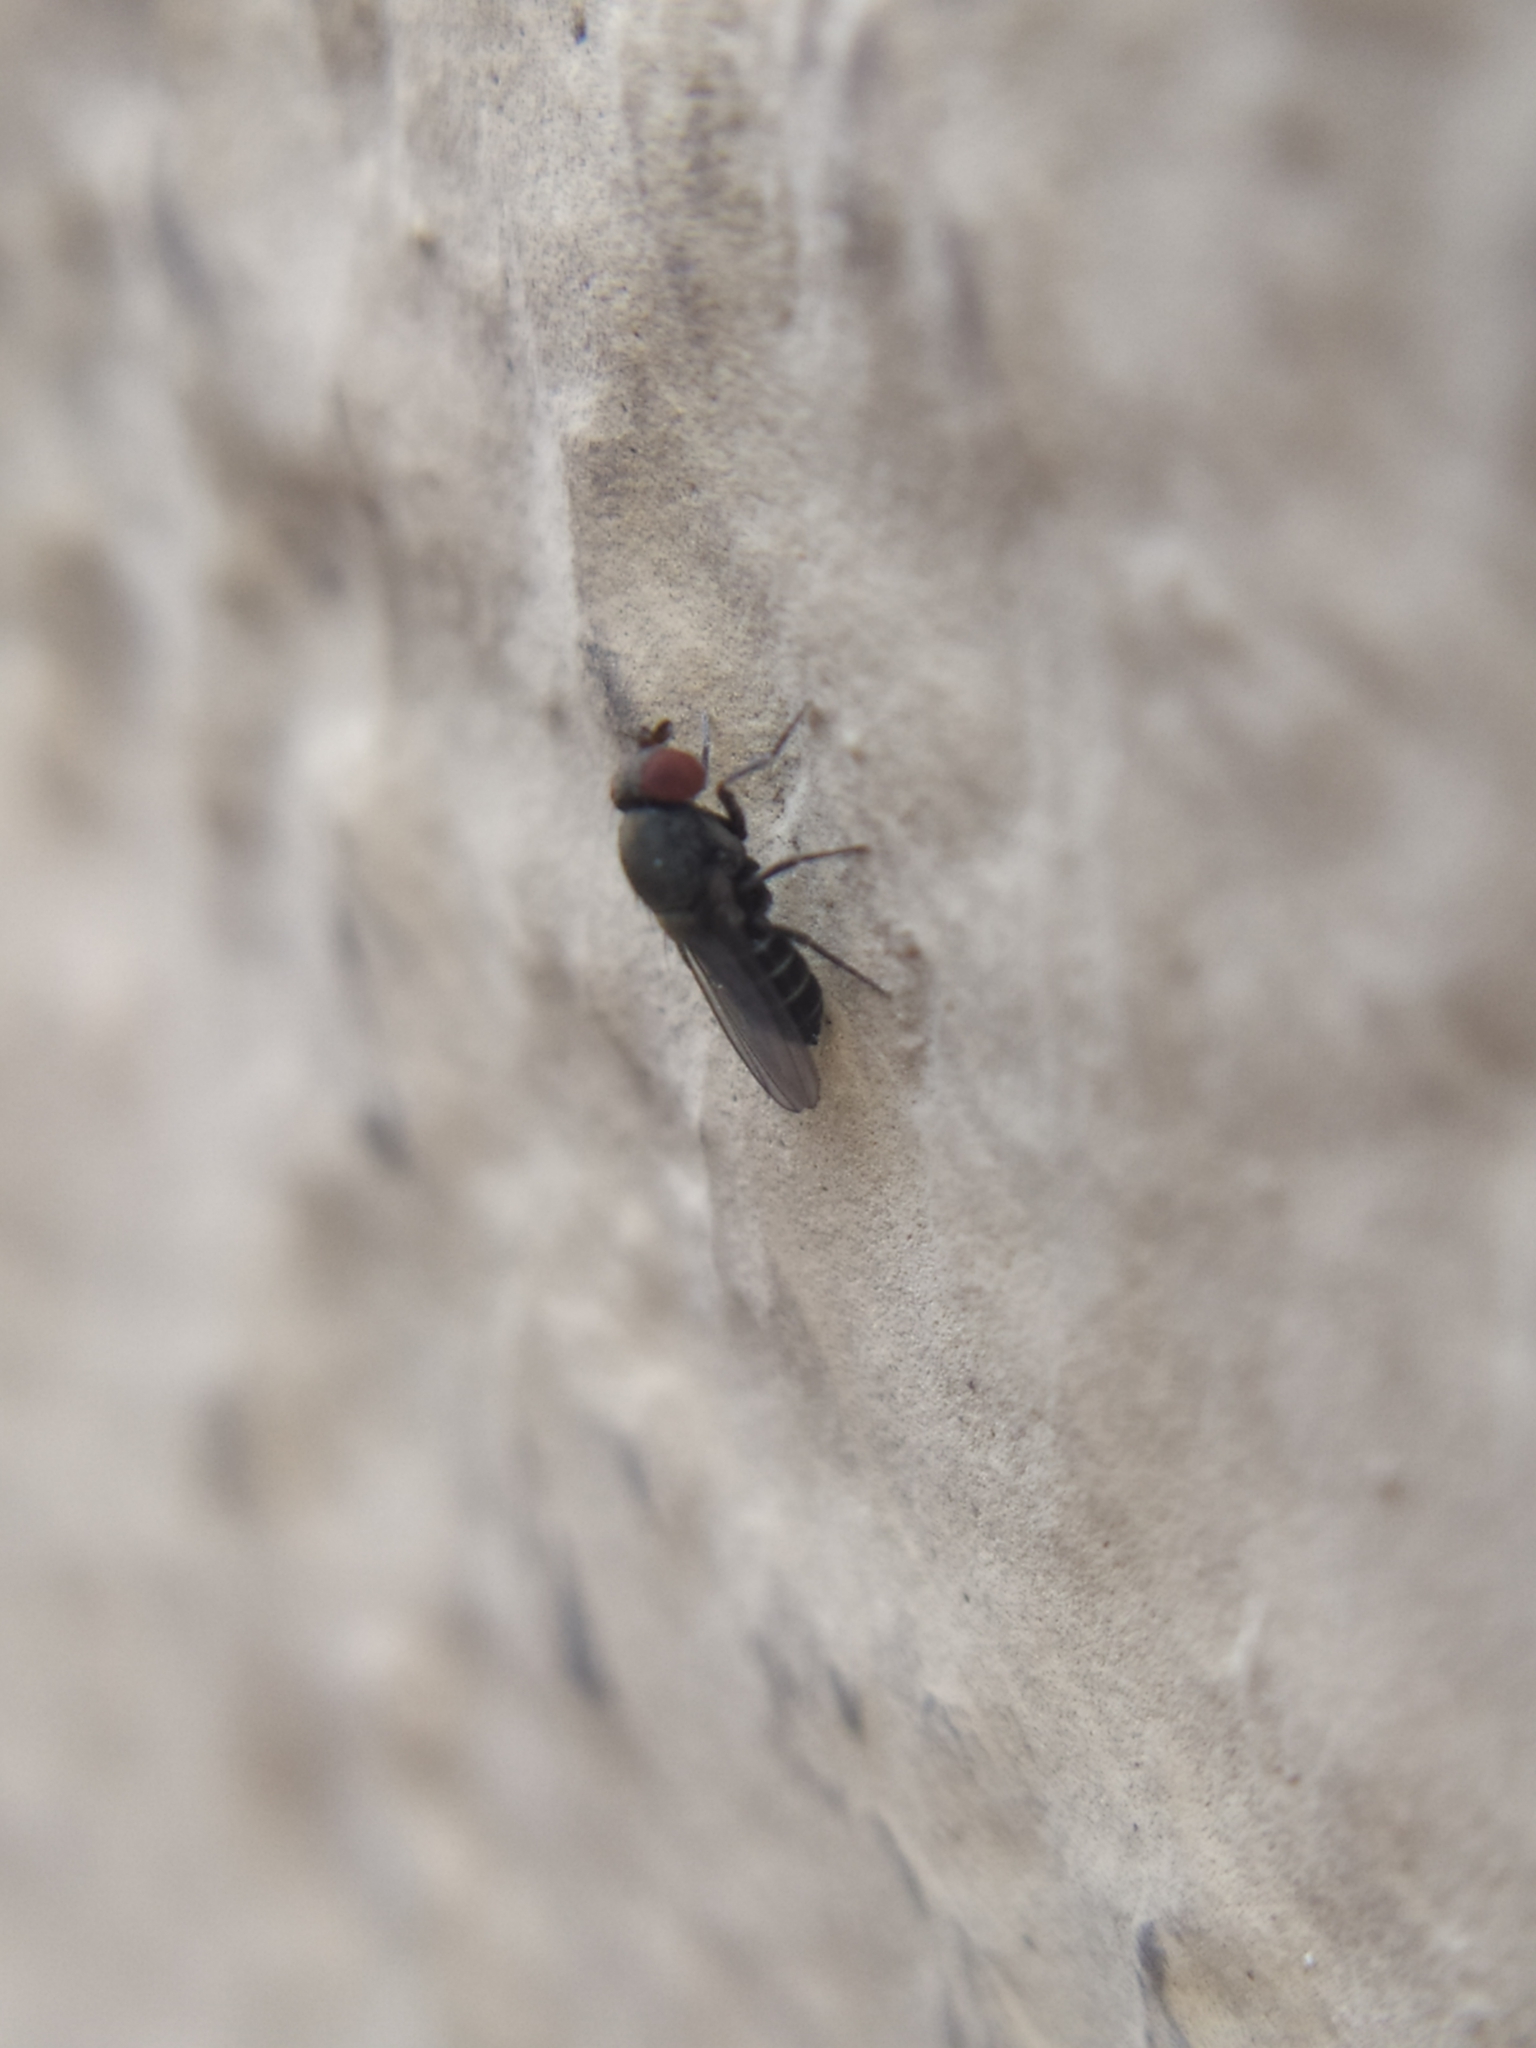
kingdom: Animalia
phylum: Arthropoda
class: Insecta
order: Diptera
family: Drosophilidae
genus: Cacoxenus
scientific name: Cacoxenus indagator
